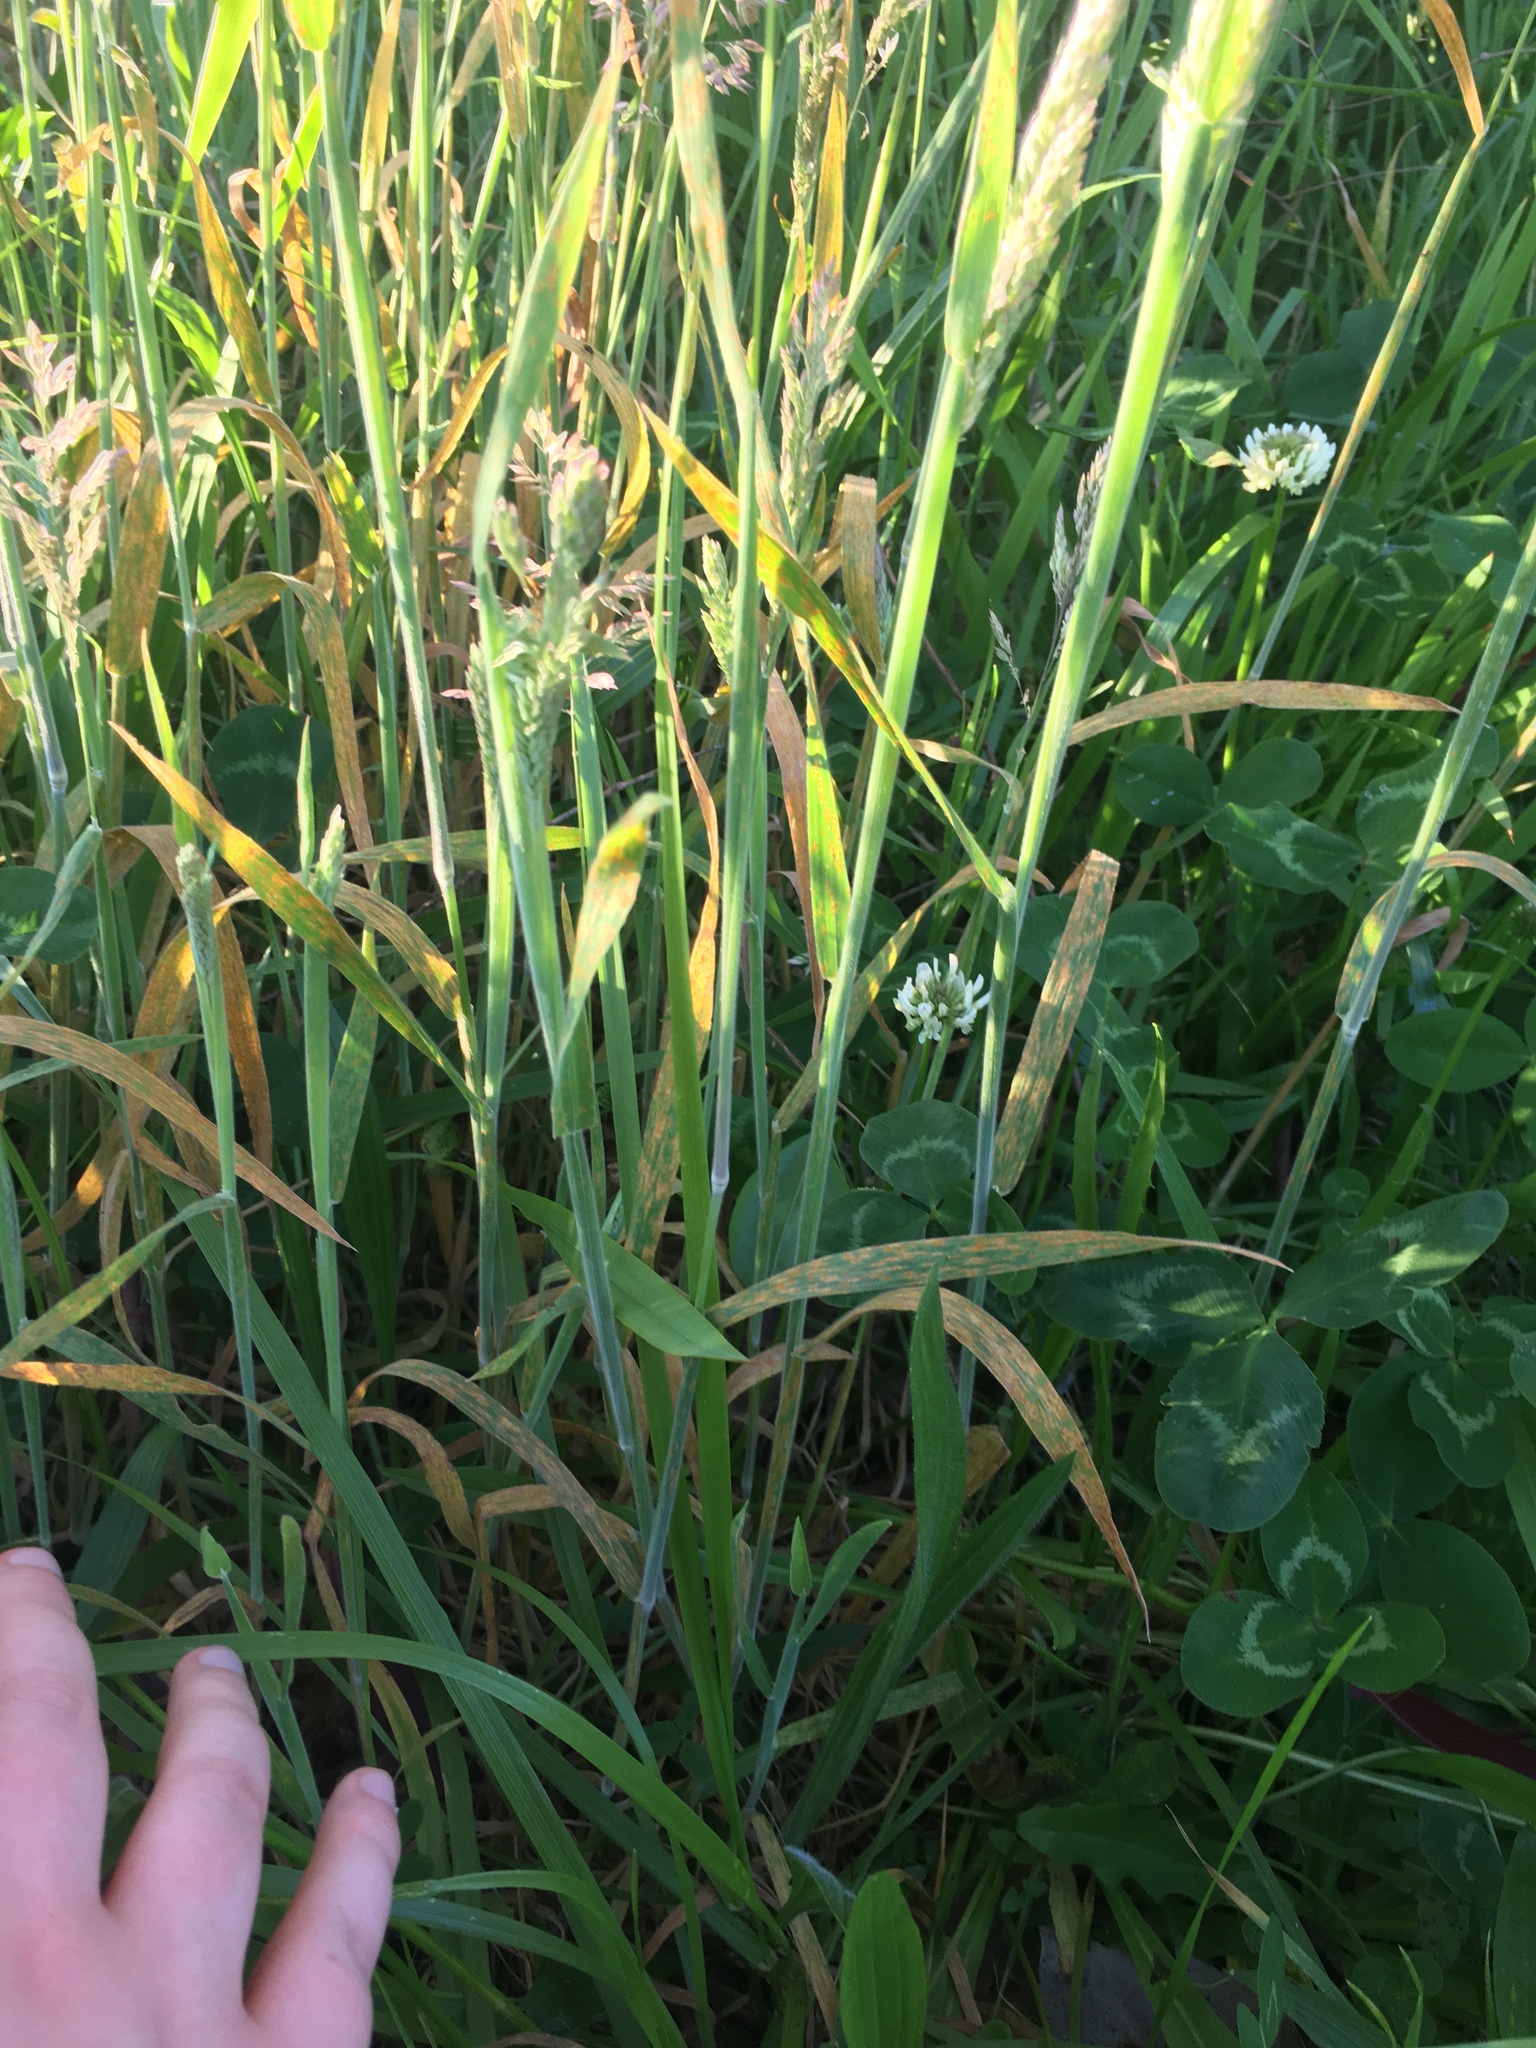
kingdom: Plantae
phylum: Tracheophyta
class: Liliopsida
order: Poales
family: Poaceae
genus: Holcus
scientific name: Holcus lanatus
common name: Yorkshire-fog
